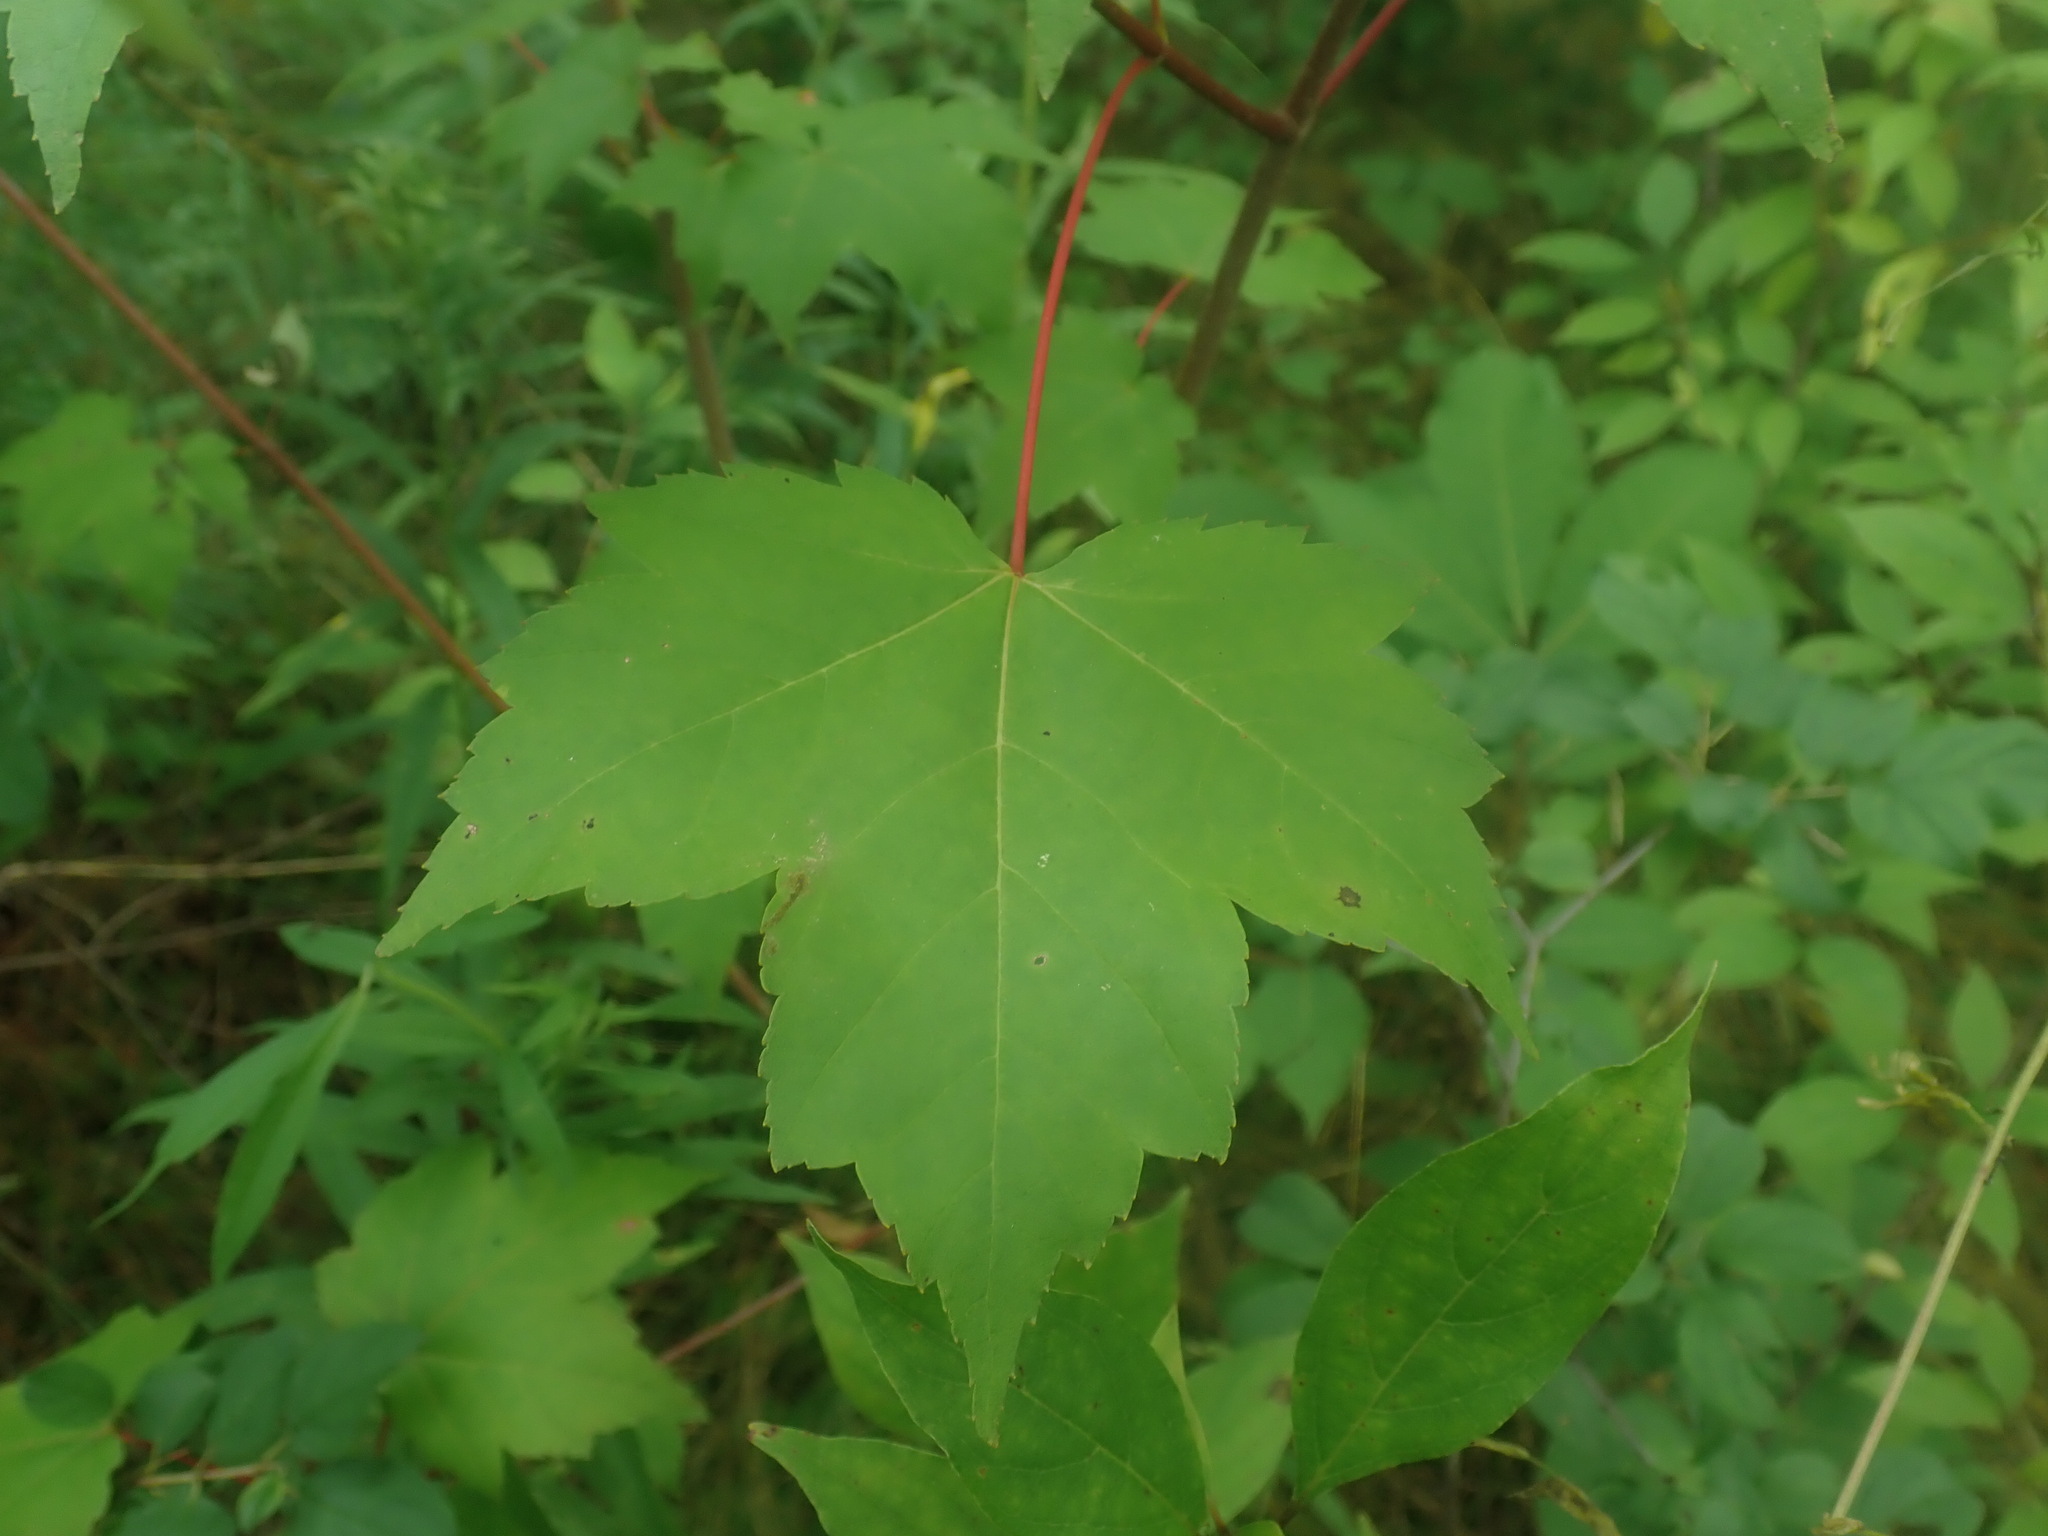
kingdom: Plantae
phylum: Tracheophyta
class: Magnoliopsida
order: Sapindales
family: Sapindaceae
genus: Acer
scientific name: Acer rubrum
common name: Red maple
